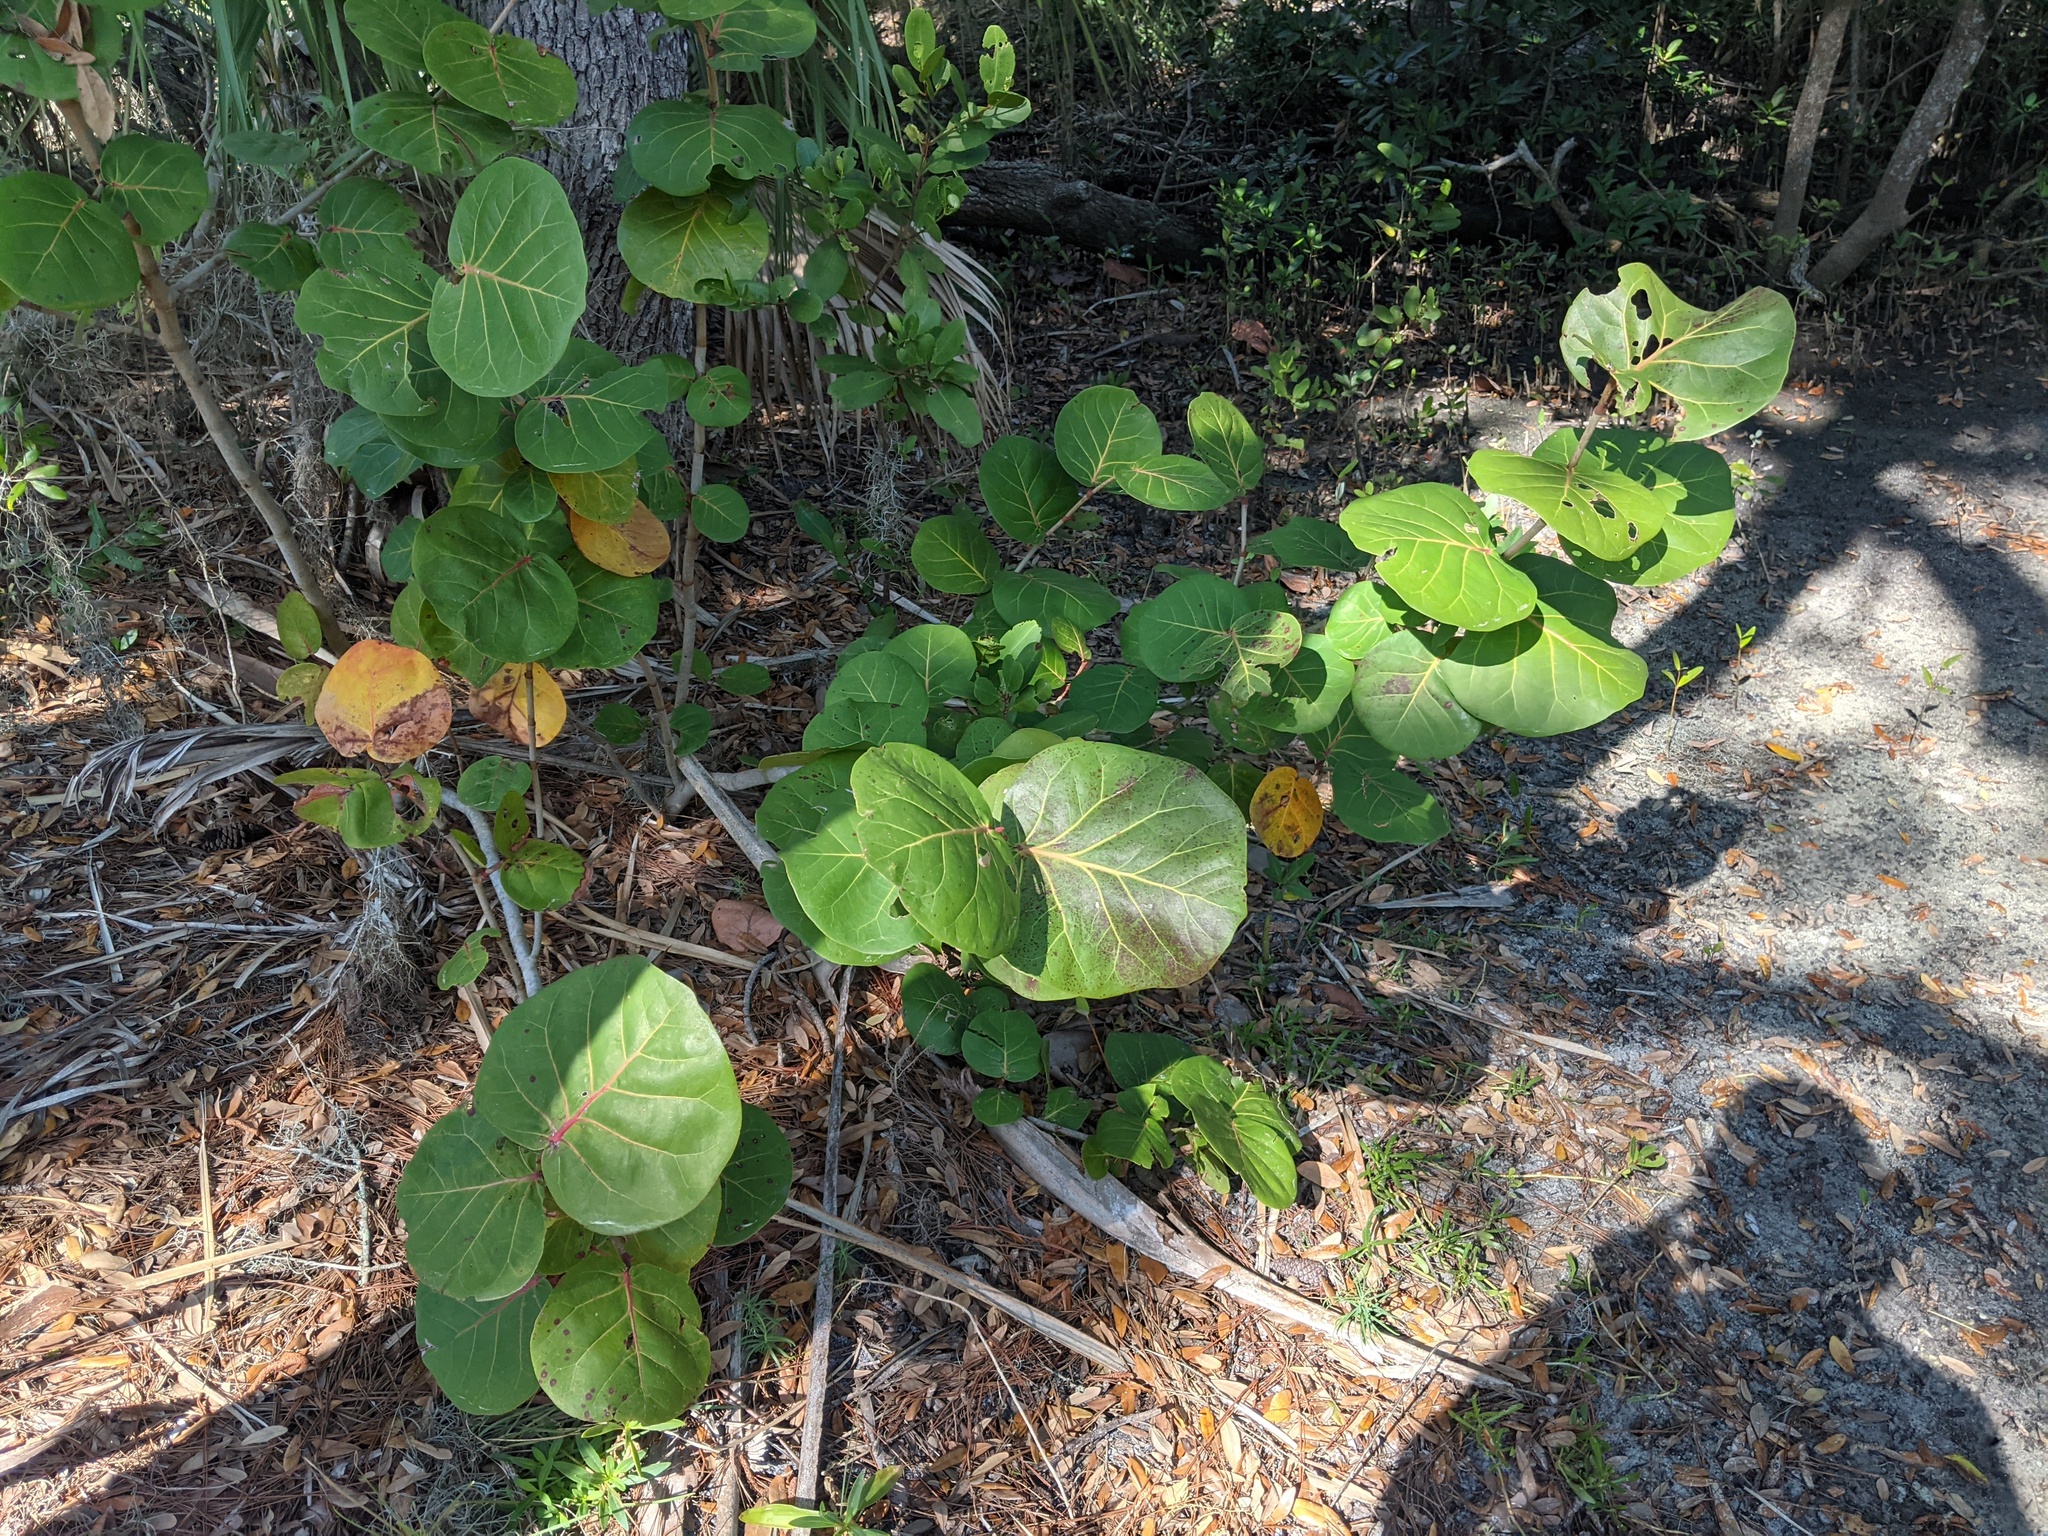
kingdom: Plantae
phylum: Tracheophyta
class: Magnoliopsida
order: Caryophyllales
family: Polygonaceae
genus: Coccoloba
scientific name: Coccoloba uvifera
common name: Seagrape
